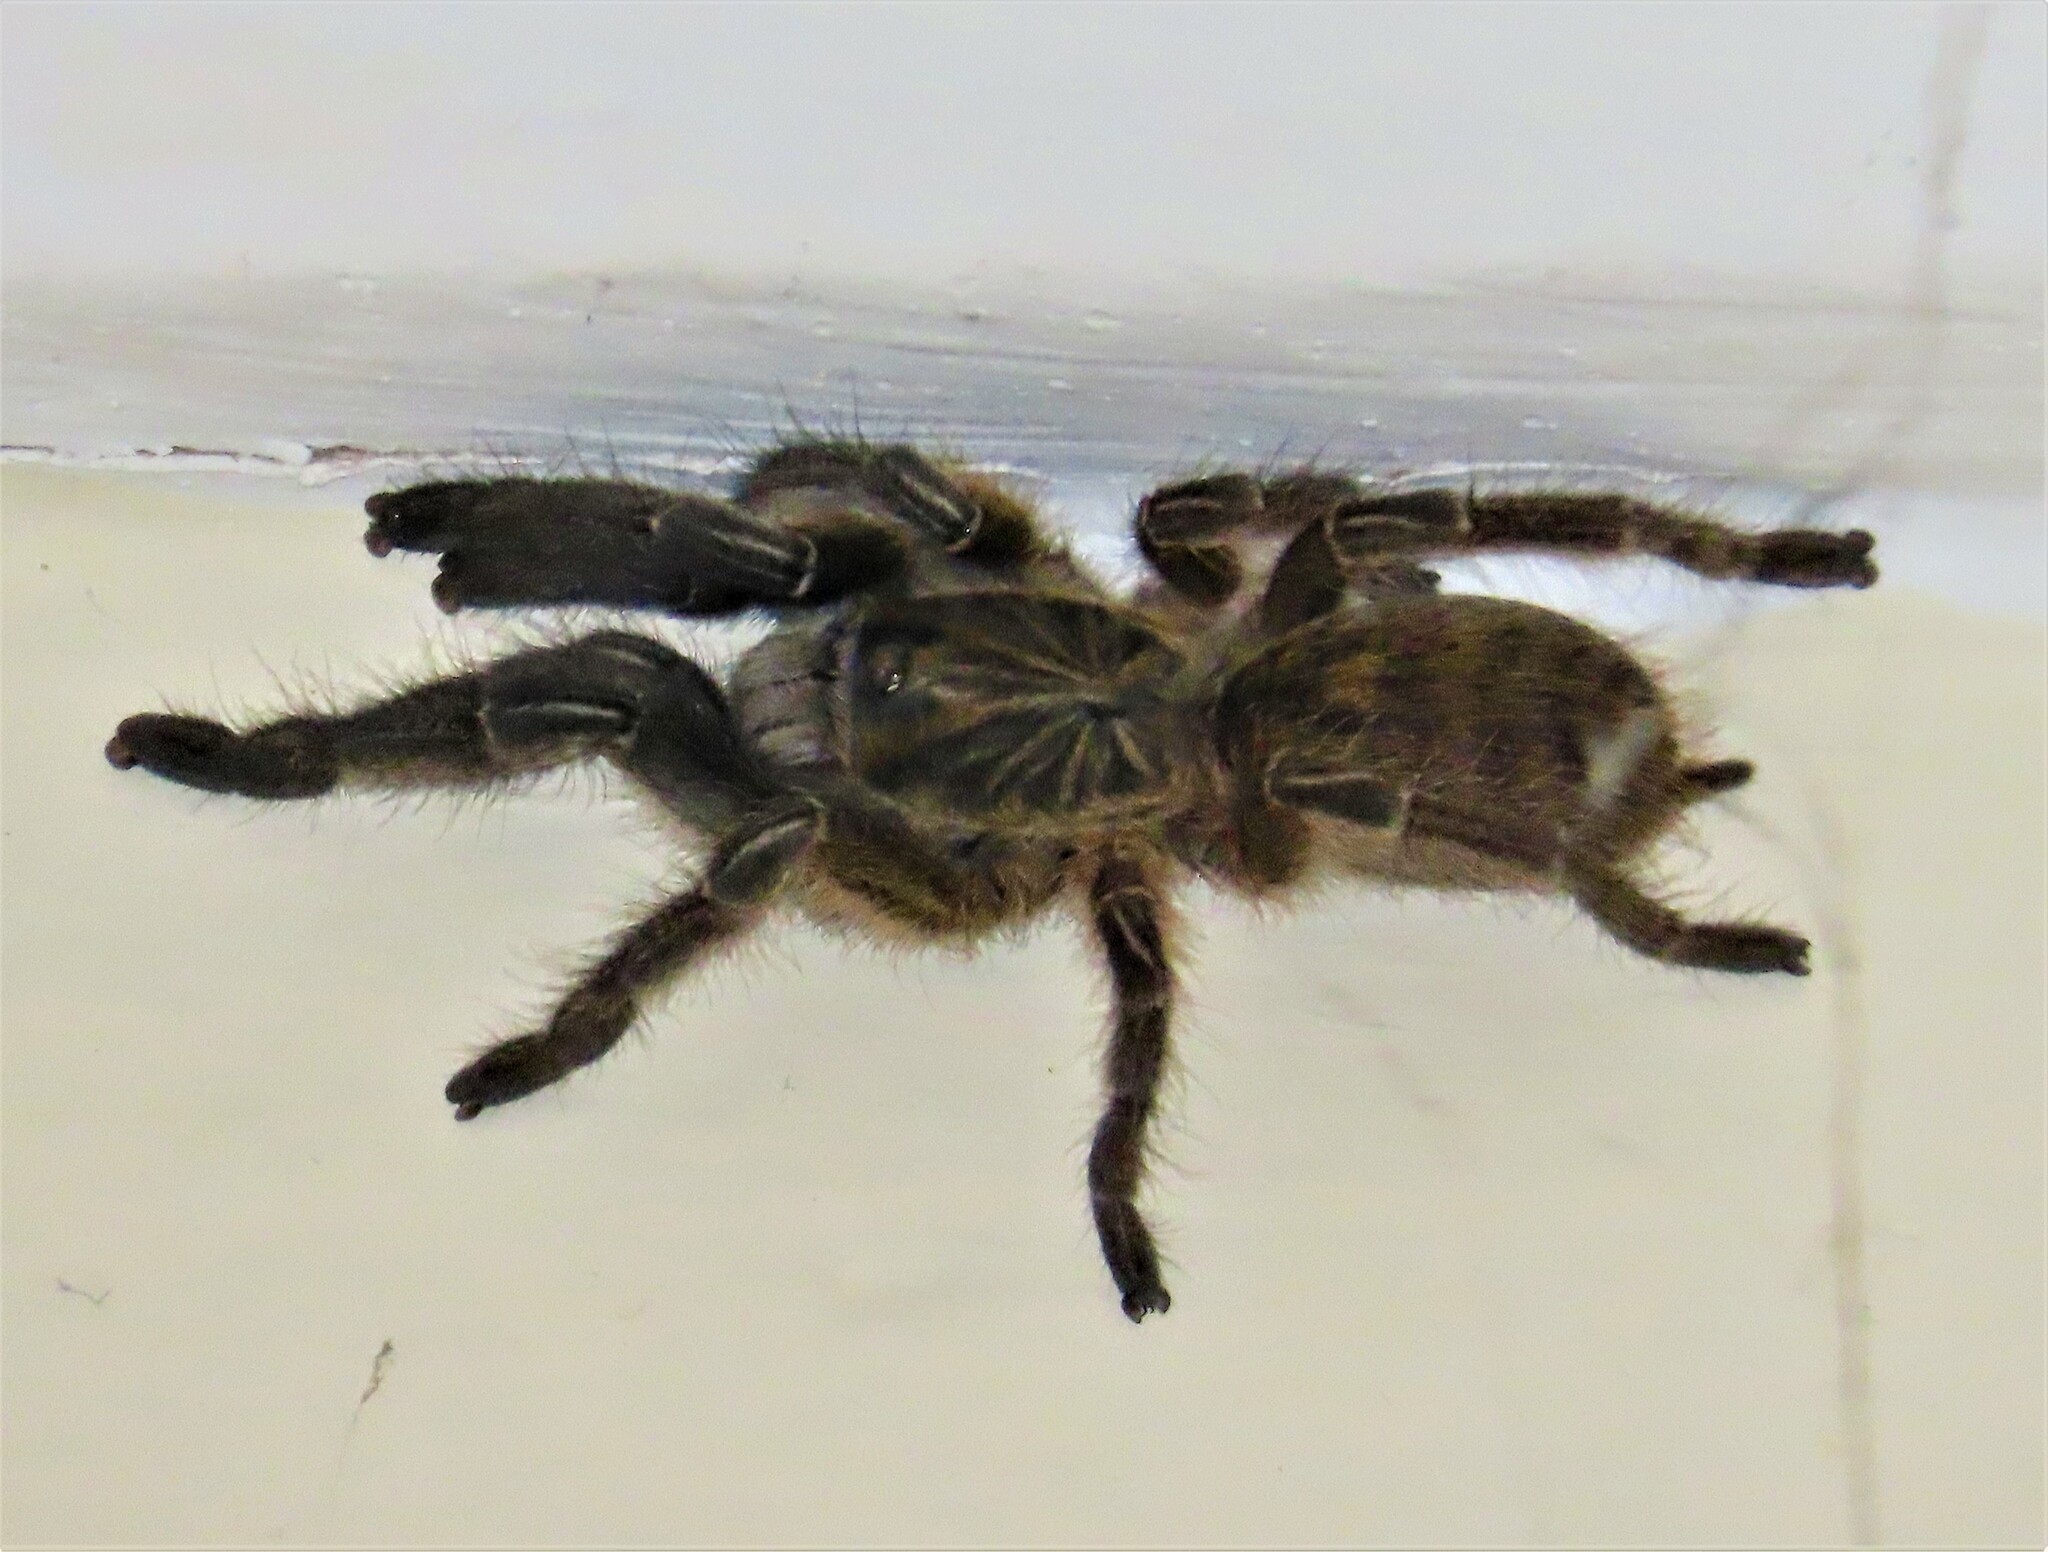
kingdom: Animalia
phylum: Arthropoda
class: Arachnida
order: Araneae
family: Theraphosidae
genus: Ceratogyrus
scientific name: Ceratogyrus dolichocephalus
